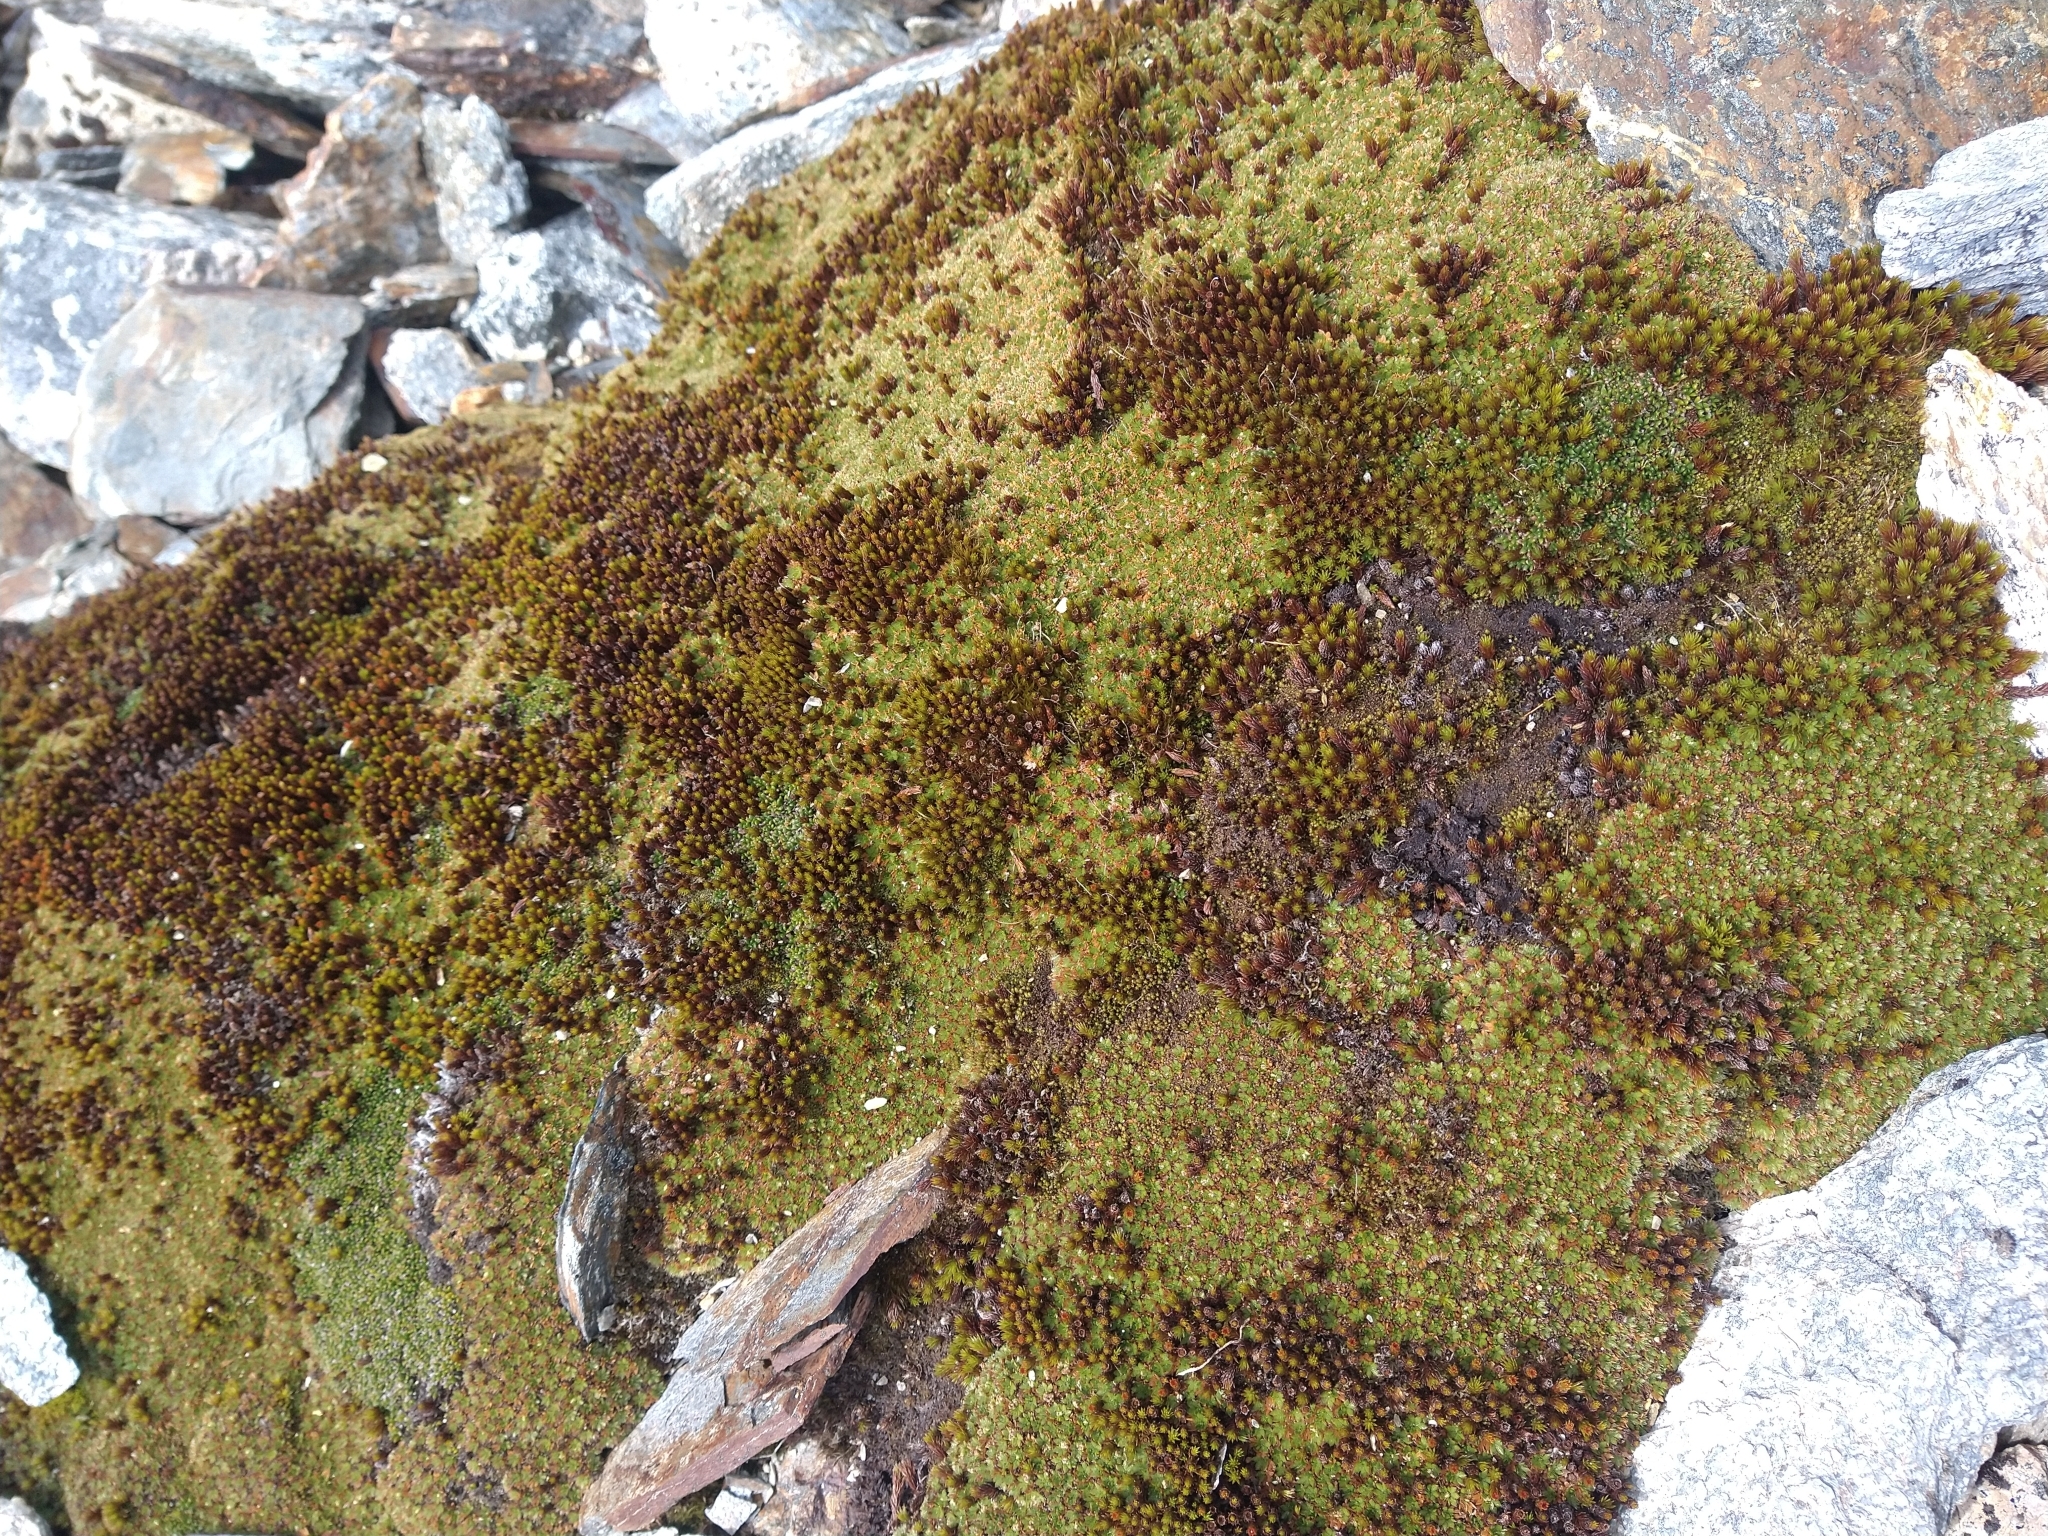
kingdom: Plantae
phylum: Tracheophyta
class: Magnoliopsida
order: Asterales
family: Asteraceae
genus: Abrotanella
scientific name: Abrotanella emarginata
